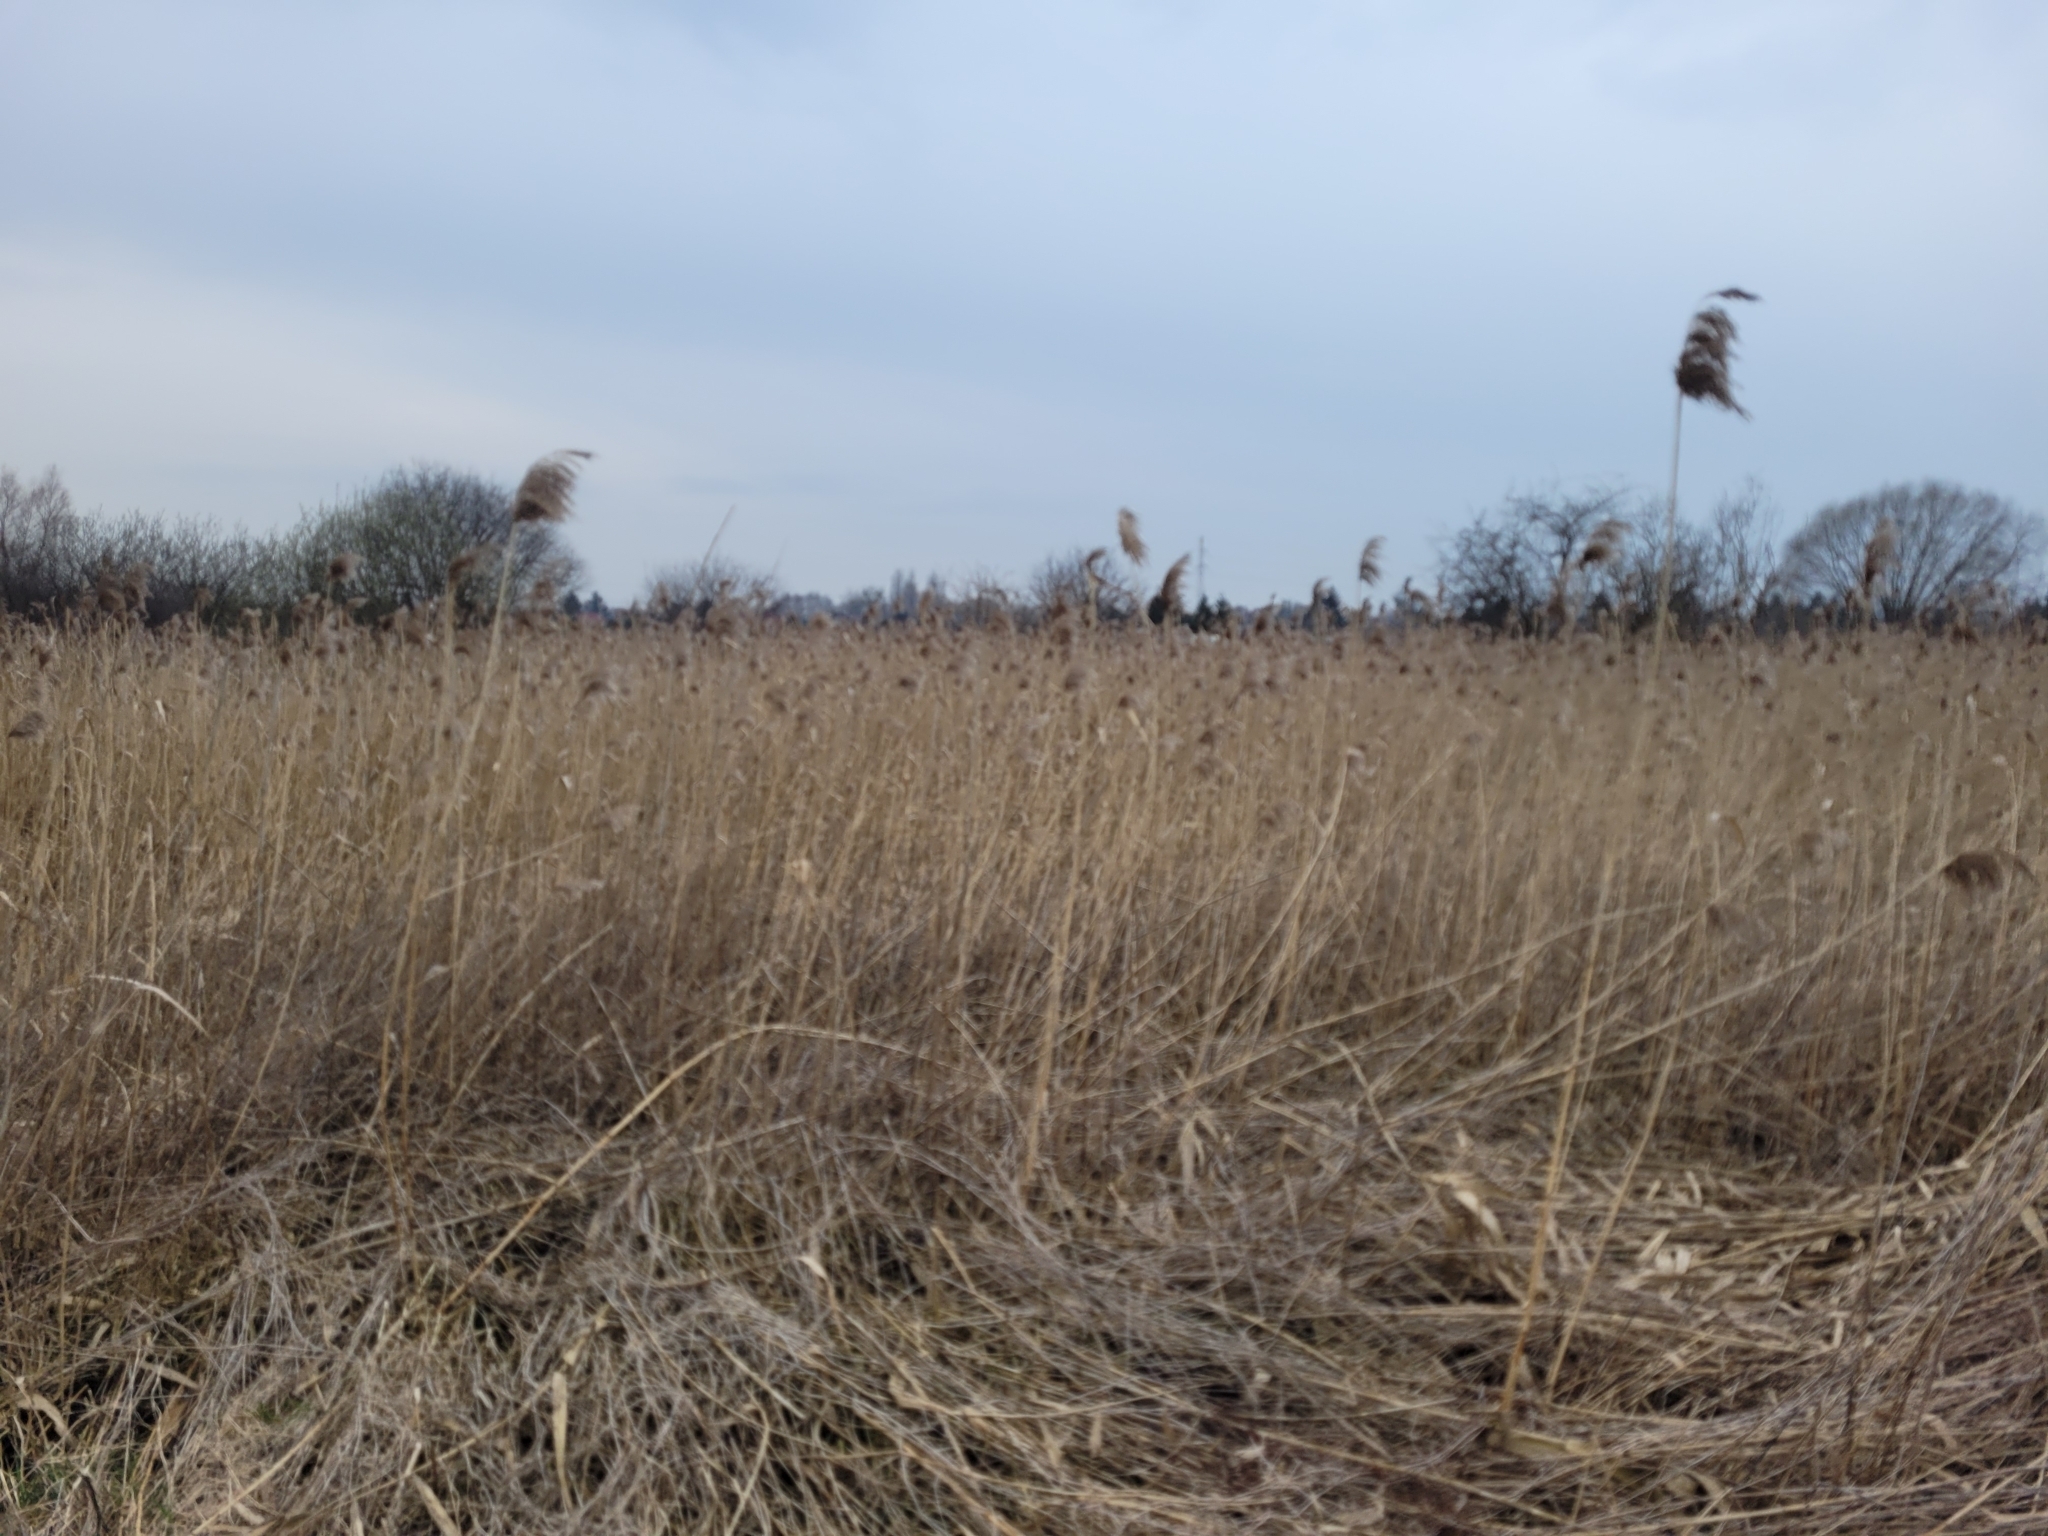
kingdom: Plantae
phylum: Tracheophyta
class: Liliopsida
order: Poales
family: Poaceae
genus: Phragmites
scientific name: Phragmites australis
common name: Common reed
